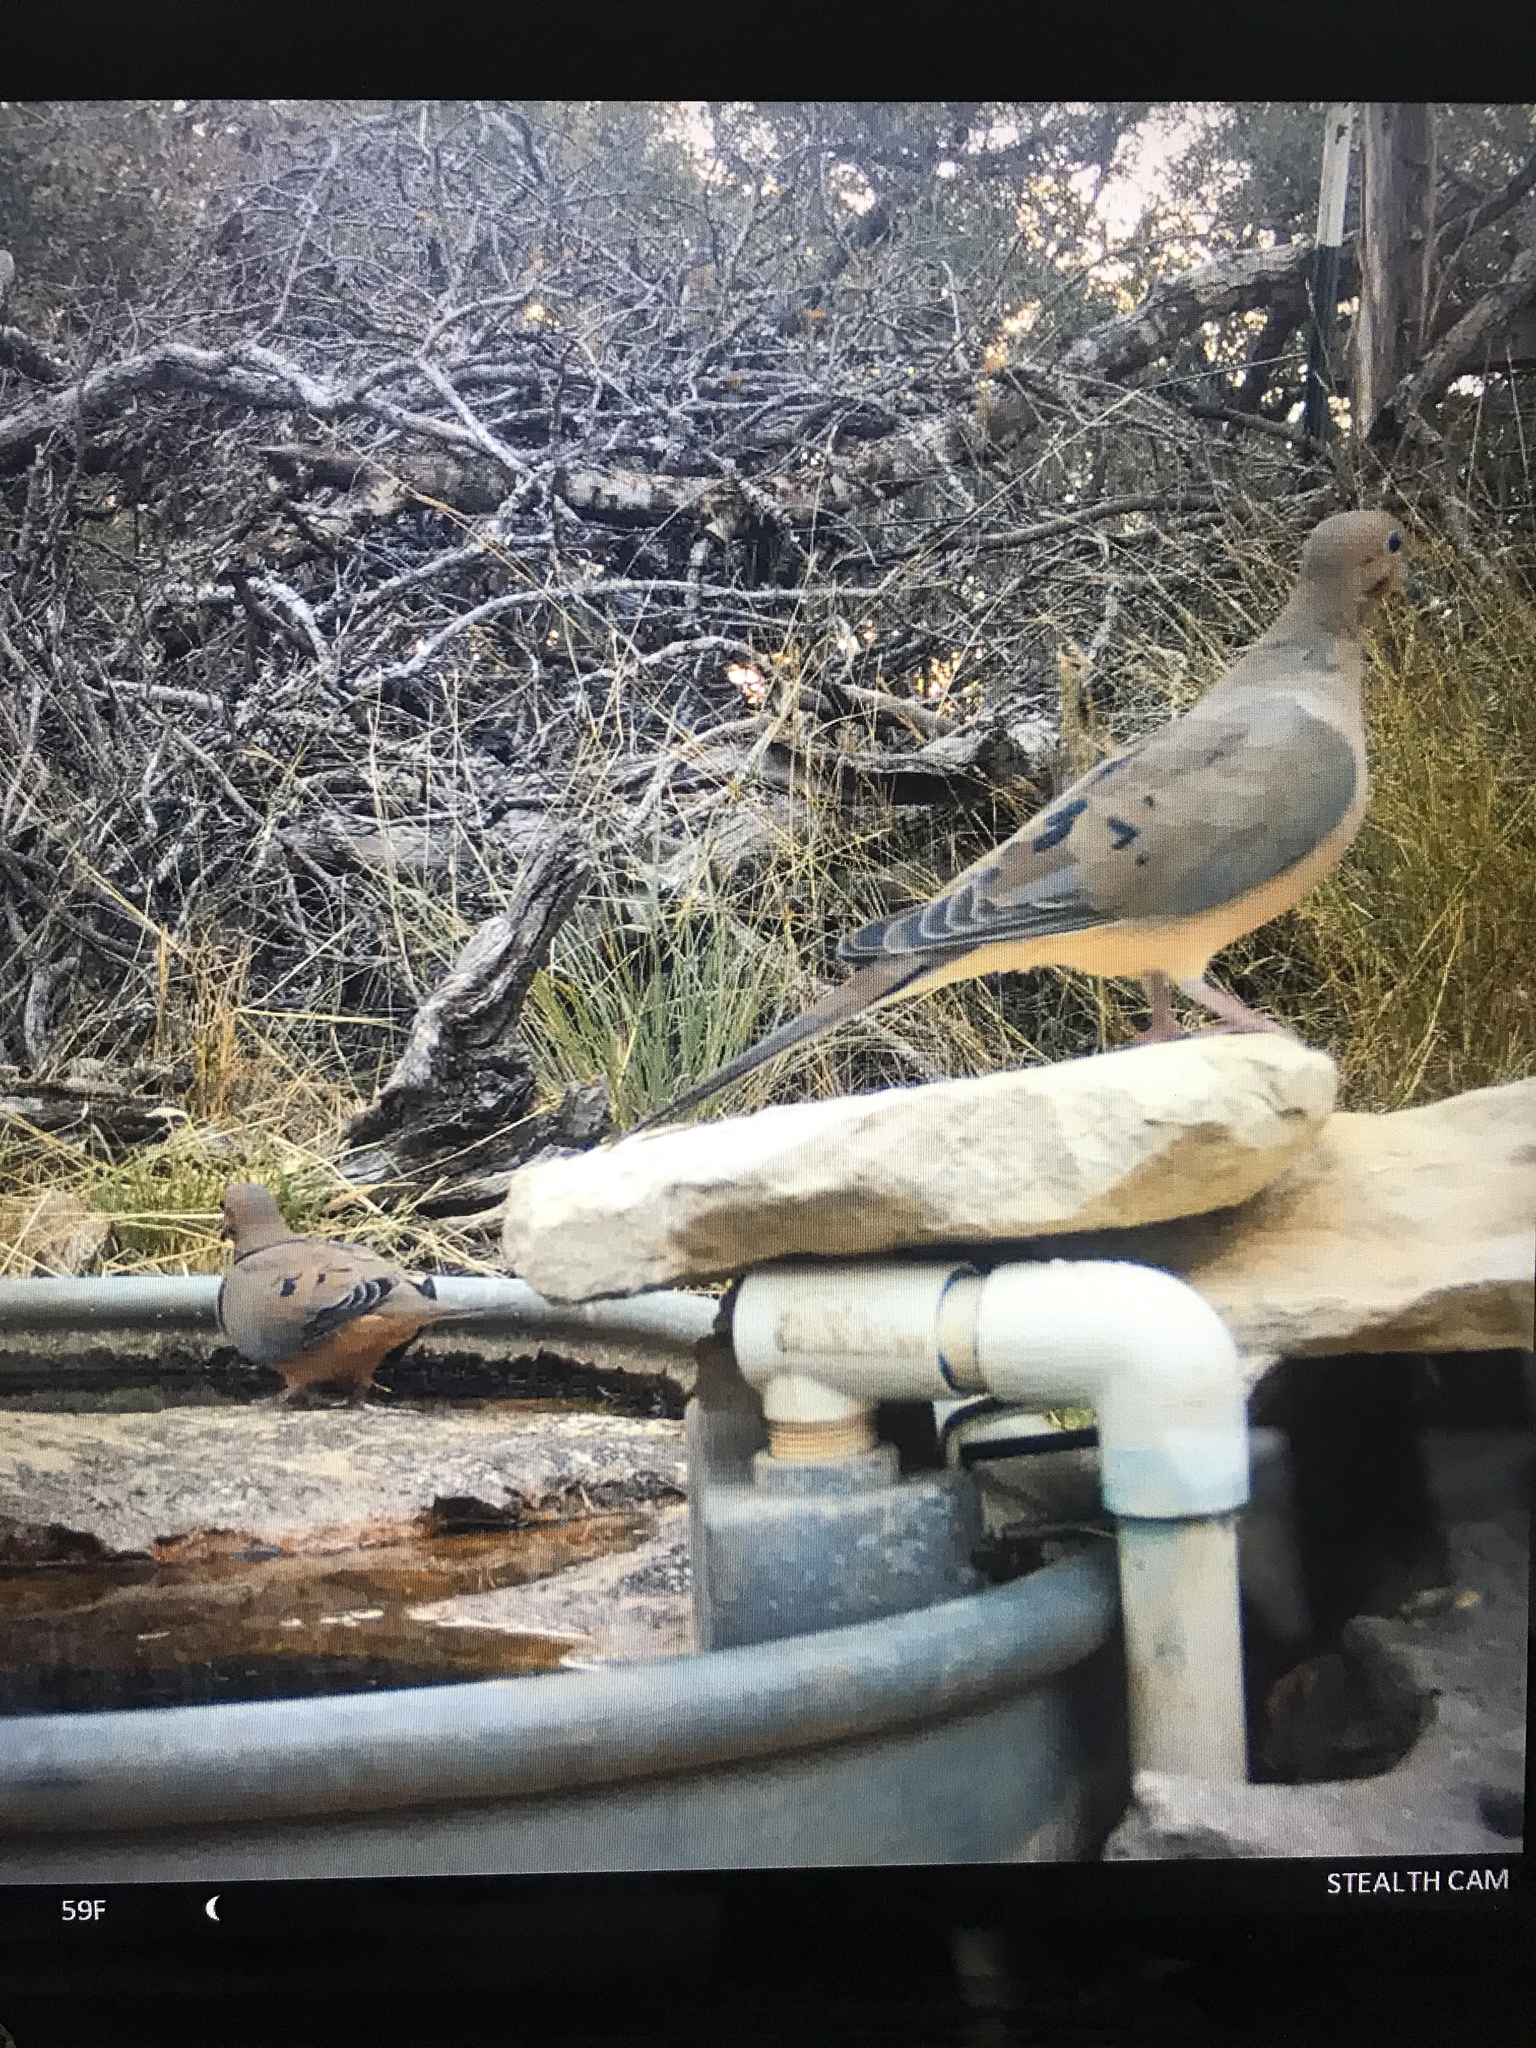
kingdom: Animalia
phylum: Chordata
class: Aves
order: Columbiformes
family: Columbidae
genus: Zenaida
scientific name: Zenaida macroura
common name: Mourning dove
